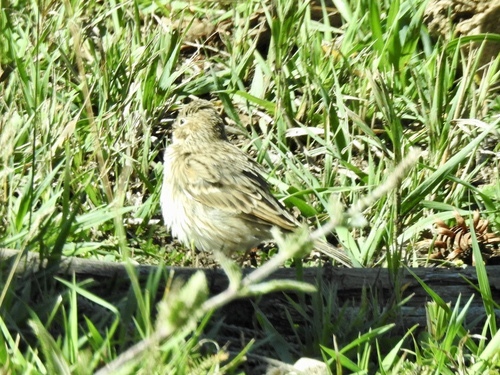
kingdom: Animalia
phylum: Chordata
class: Aves
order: Passeriformes
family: Passerellidae
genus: Pooecetes
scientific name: Pooecetes gramineus
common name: Vesper sparrow
